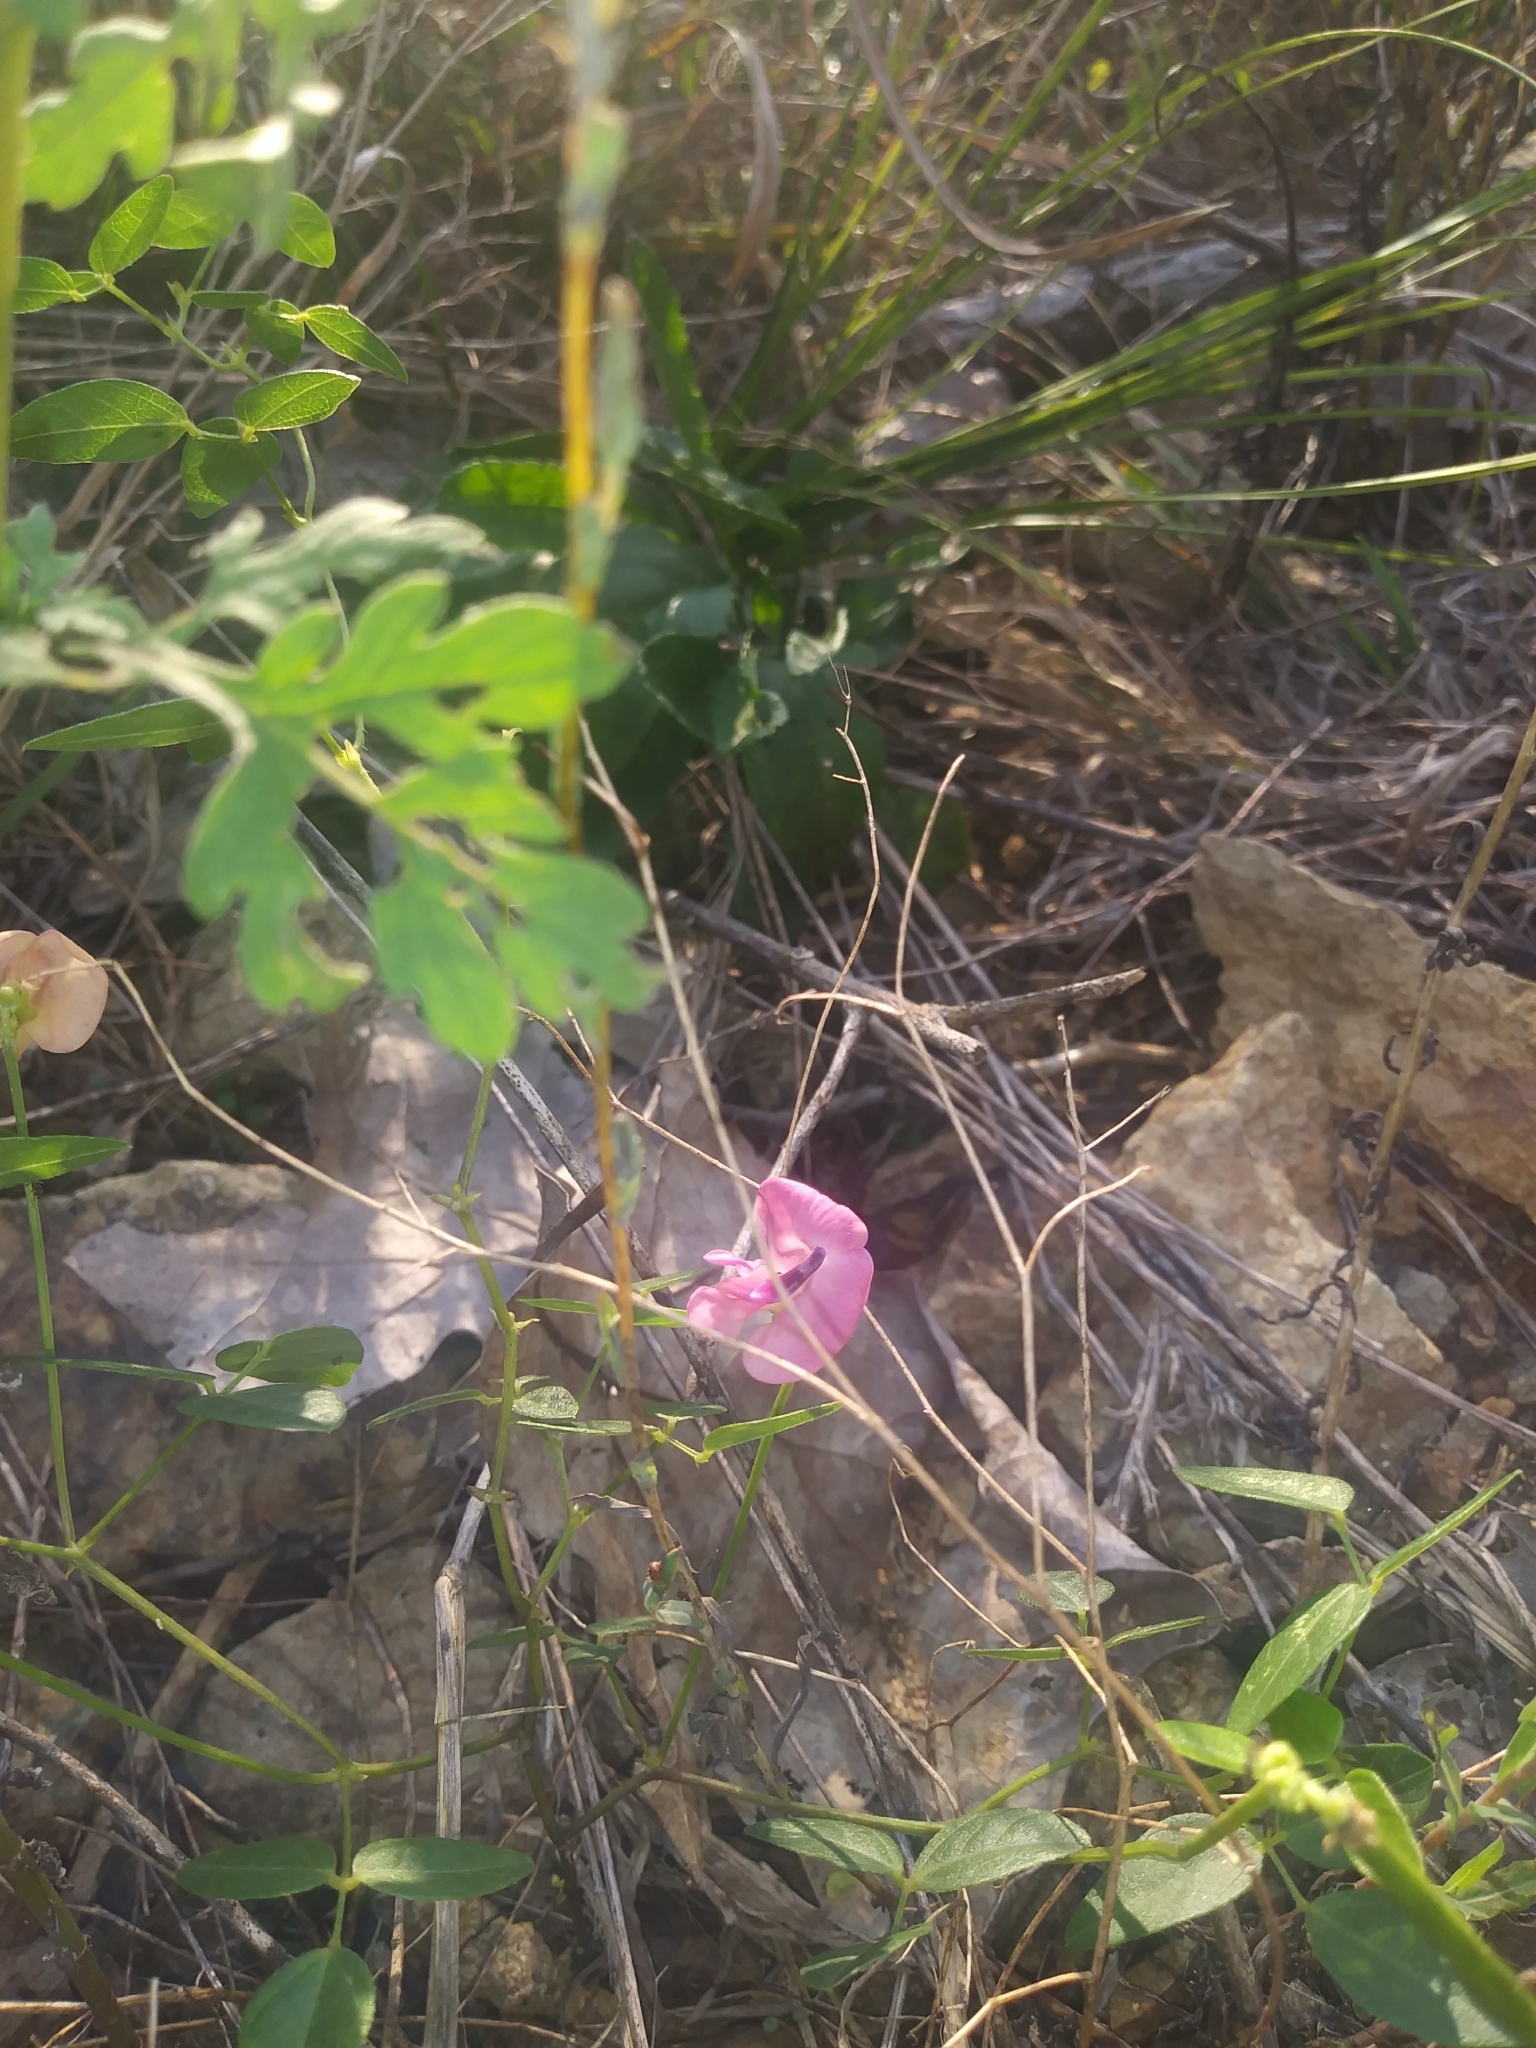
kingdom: Plantae
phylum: Tracheophyta
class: Magnoliopsida
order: Fabales
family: Fabaceae
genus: Strophostyles
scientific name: Strophostyles umbellata
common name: Perennial wild bean
